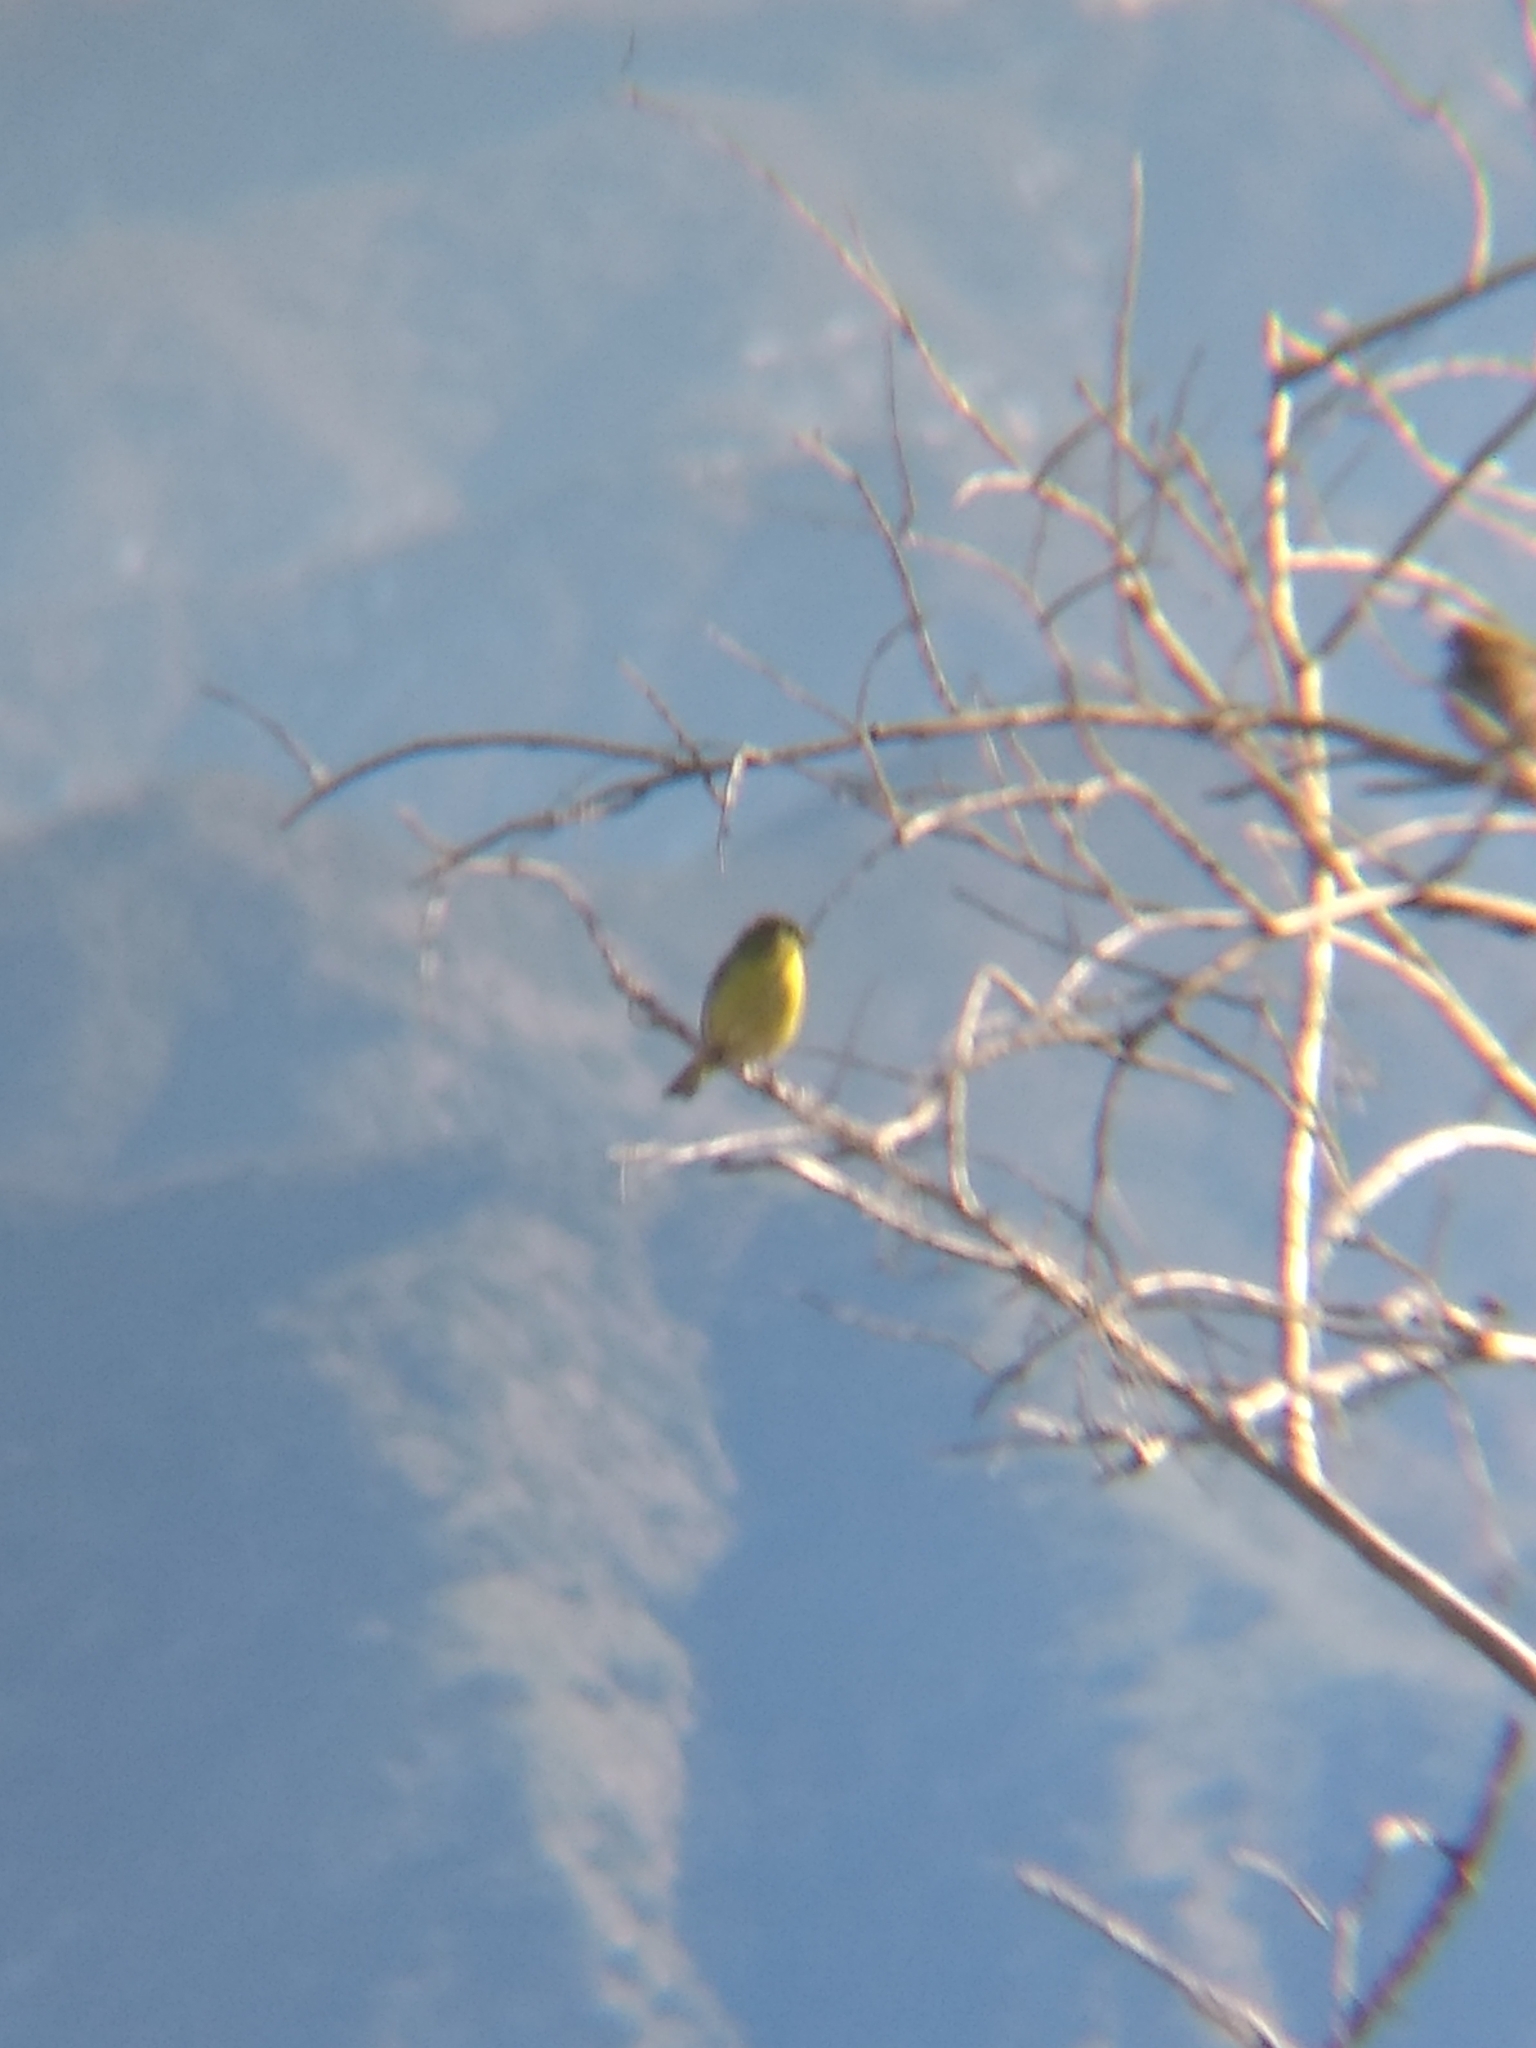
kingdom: Animalia
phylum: Chordata
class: Aves
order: Passeriformes
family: Fringillidae
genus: Spinus
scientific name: Spinus psaltria
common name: Lesser goldfinch
